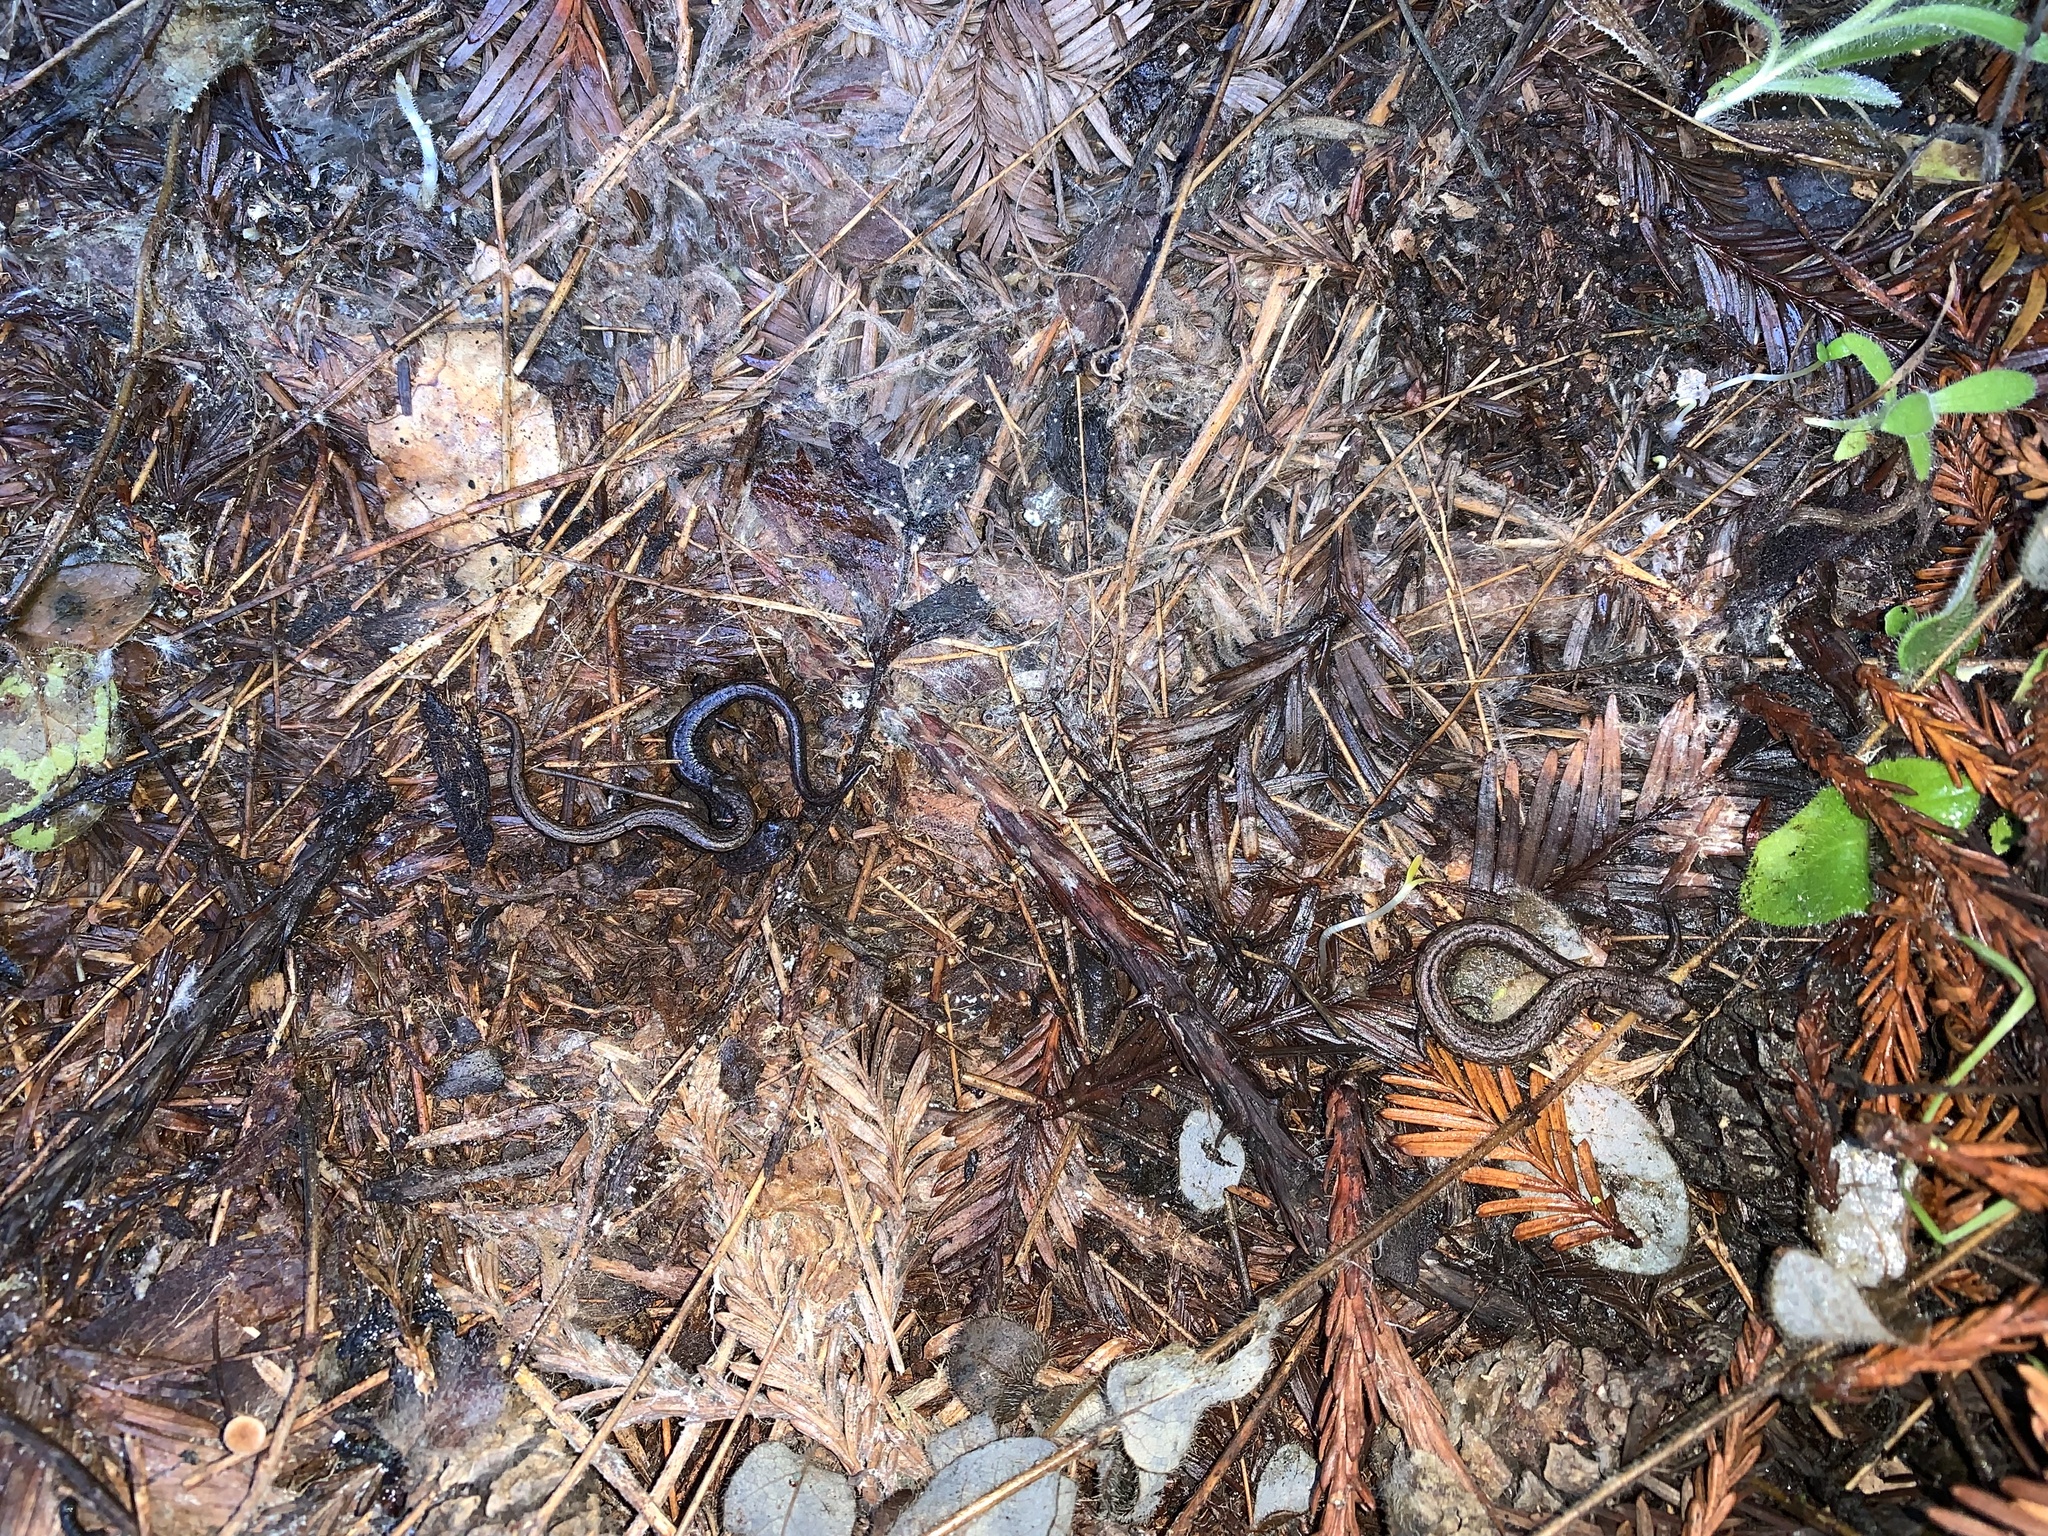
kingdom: Animalia
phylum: Chordata
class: Amphibia
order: Caudata
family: Plethodontidae
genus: Batrachoseps
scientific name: Batrachoseps attenuatus
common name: California slender salamander
